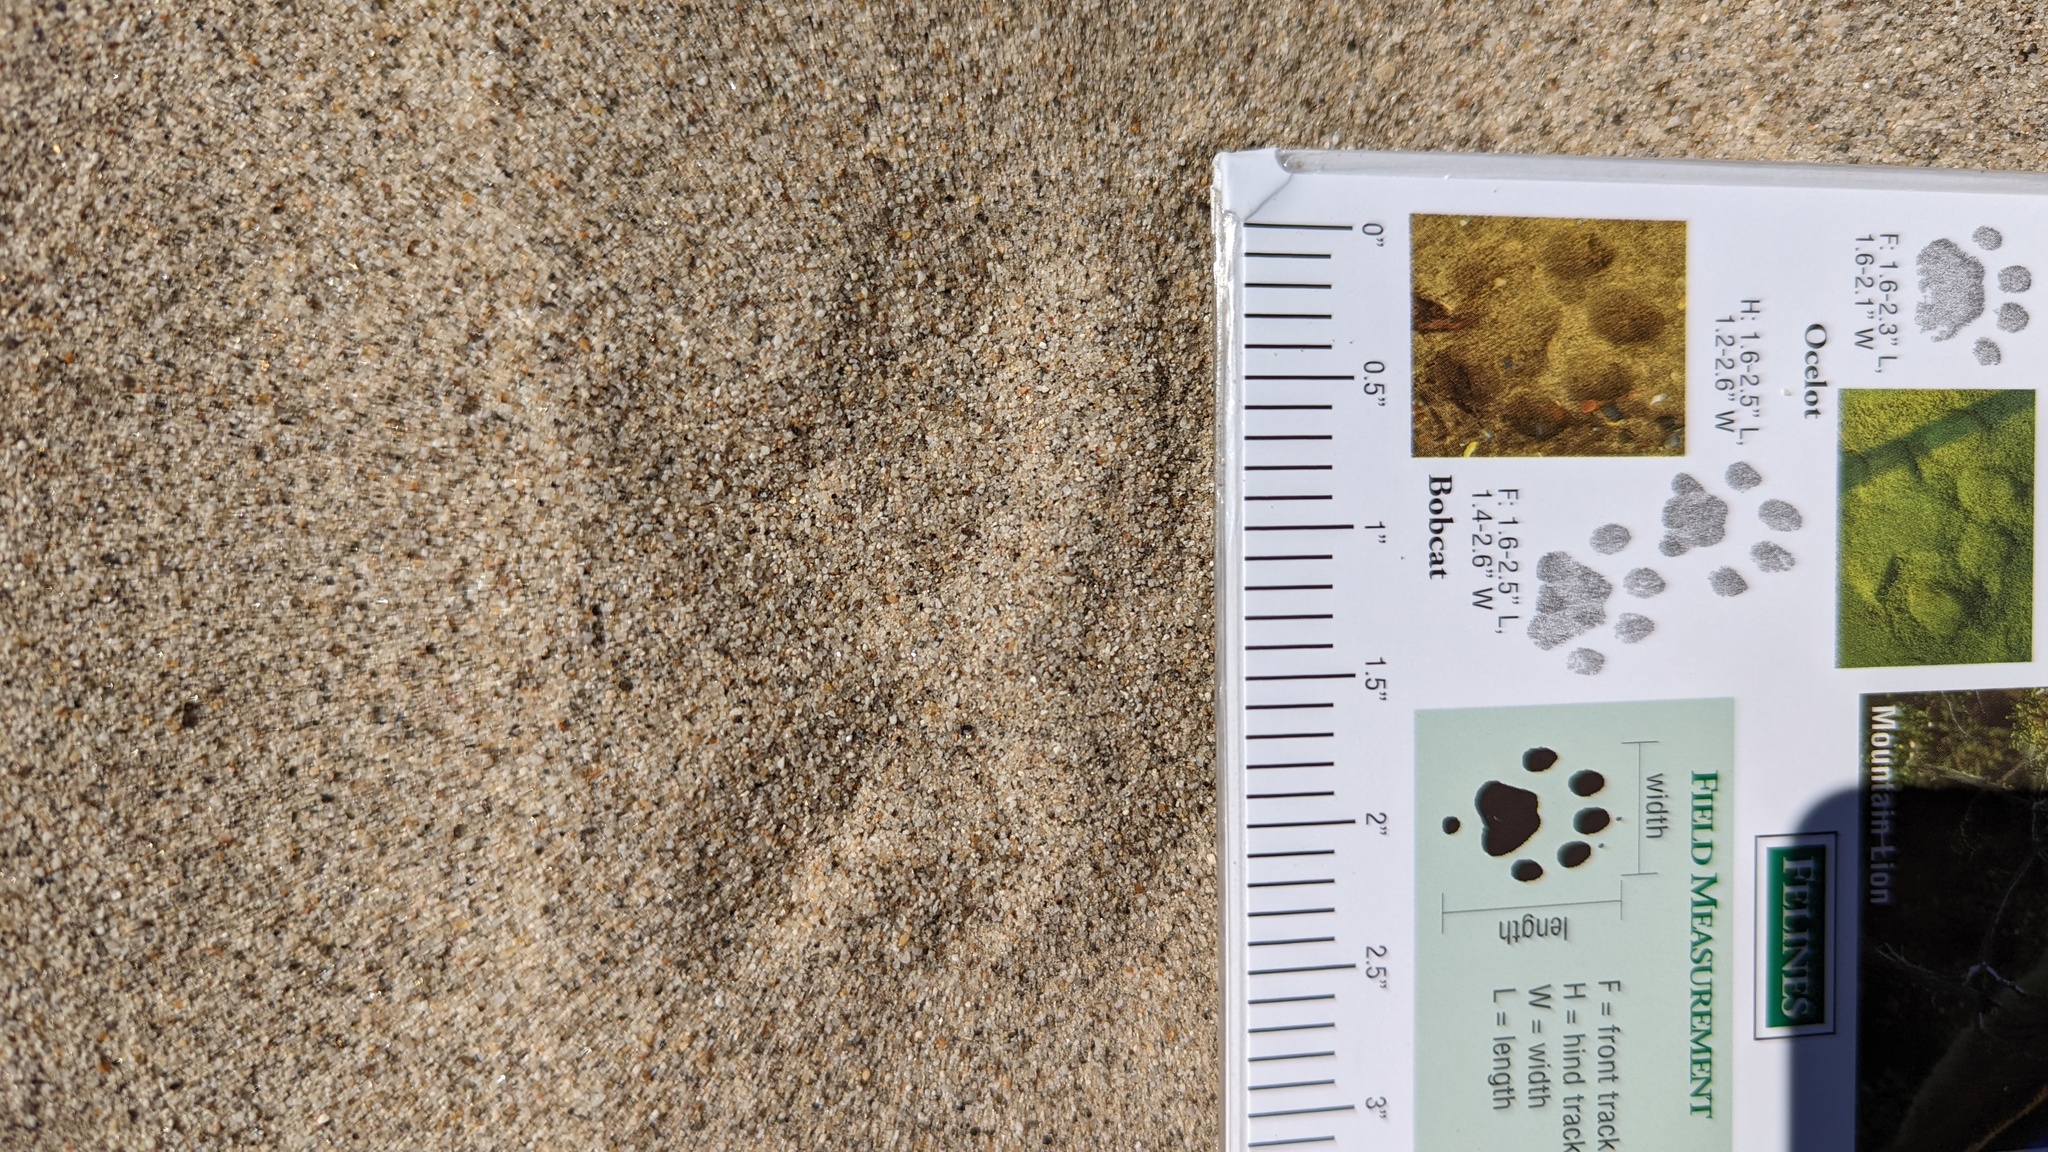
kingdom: Animalia
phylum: Chordata
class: Aves
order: Cuculiformes
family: Cuculidae
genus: Geococcyx
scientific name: Geococcyx californianus
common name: Greater roadrunner
